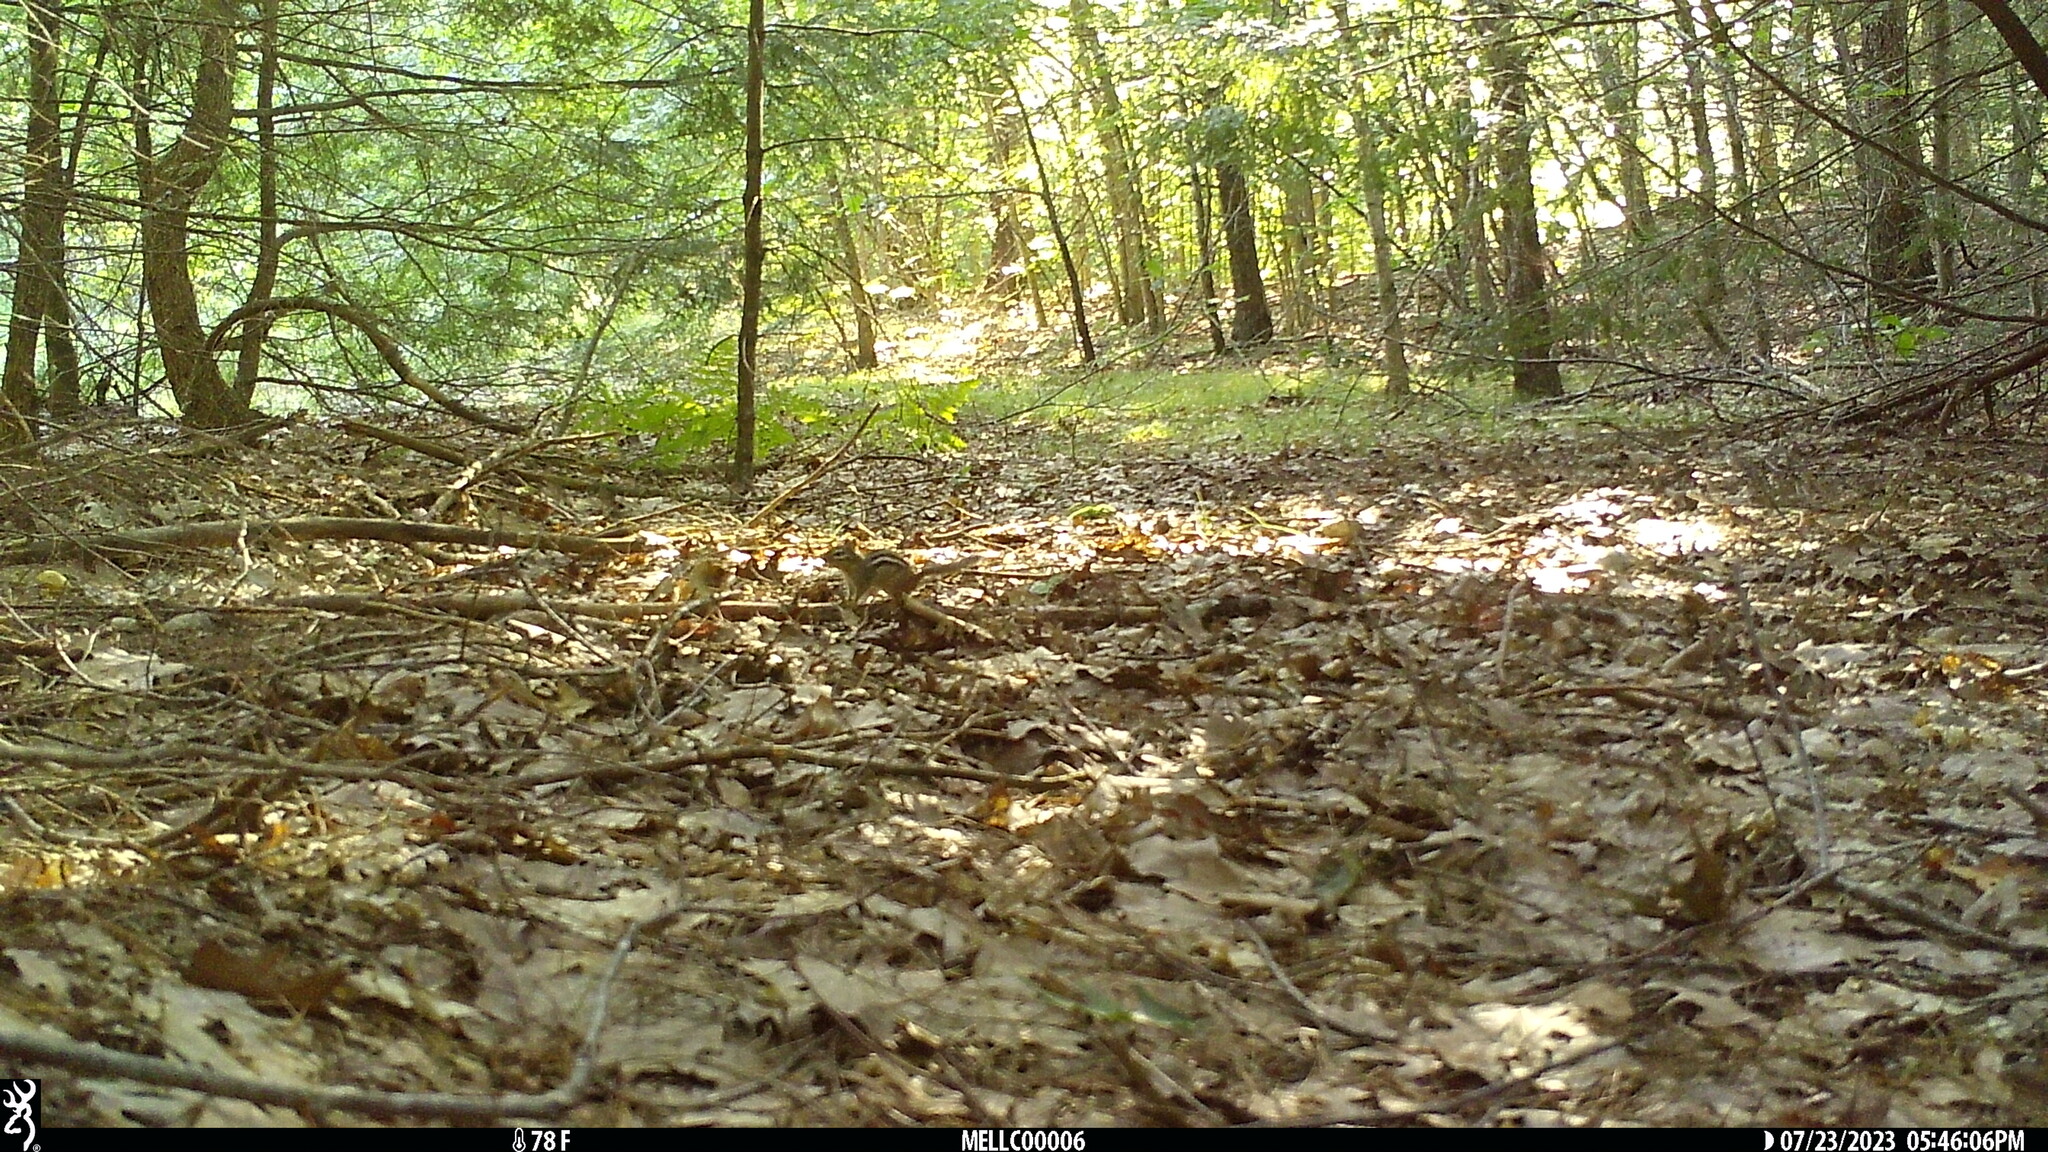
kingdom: Animalia
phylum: Chordata
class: Mammalia
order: Rodentia
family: Sciuridae
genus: Tamias
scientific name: Tamias striatus
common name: Eastern chipmunk
